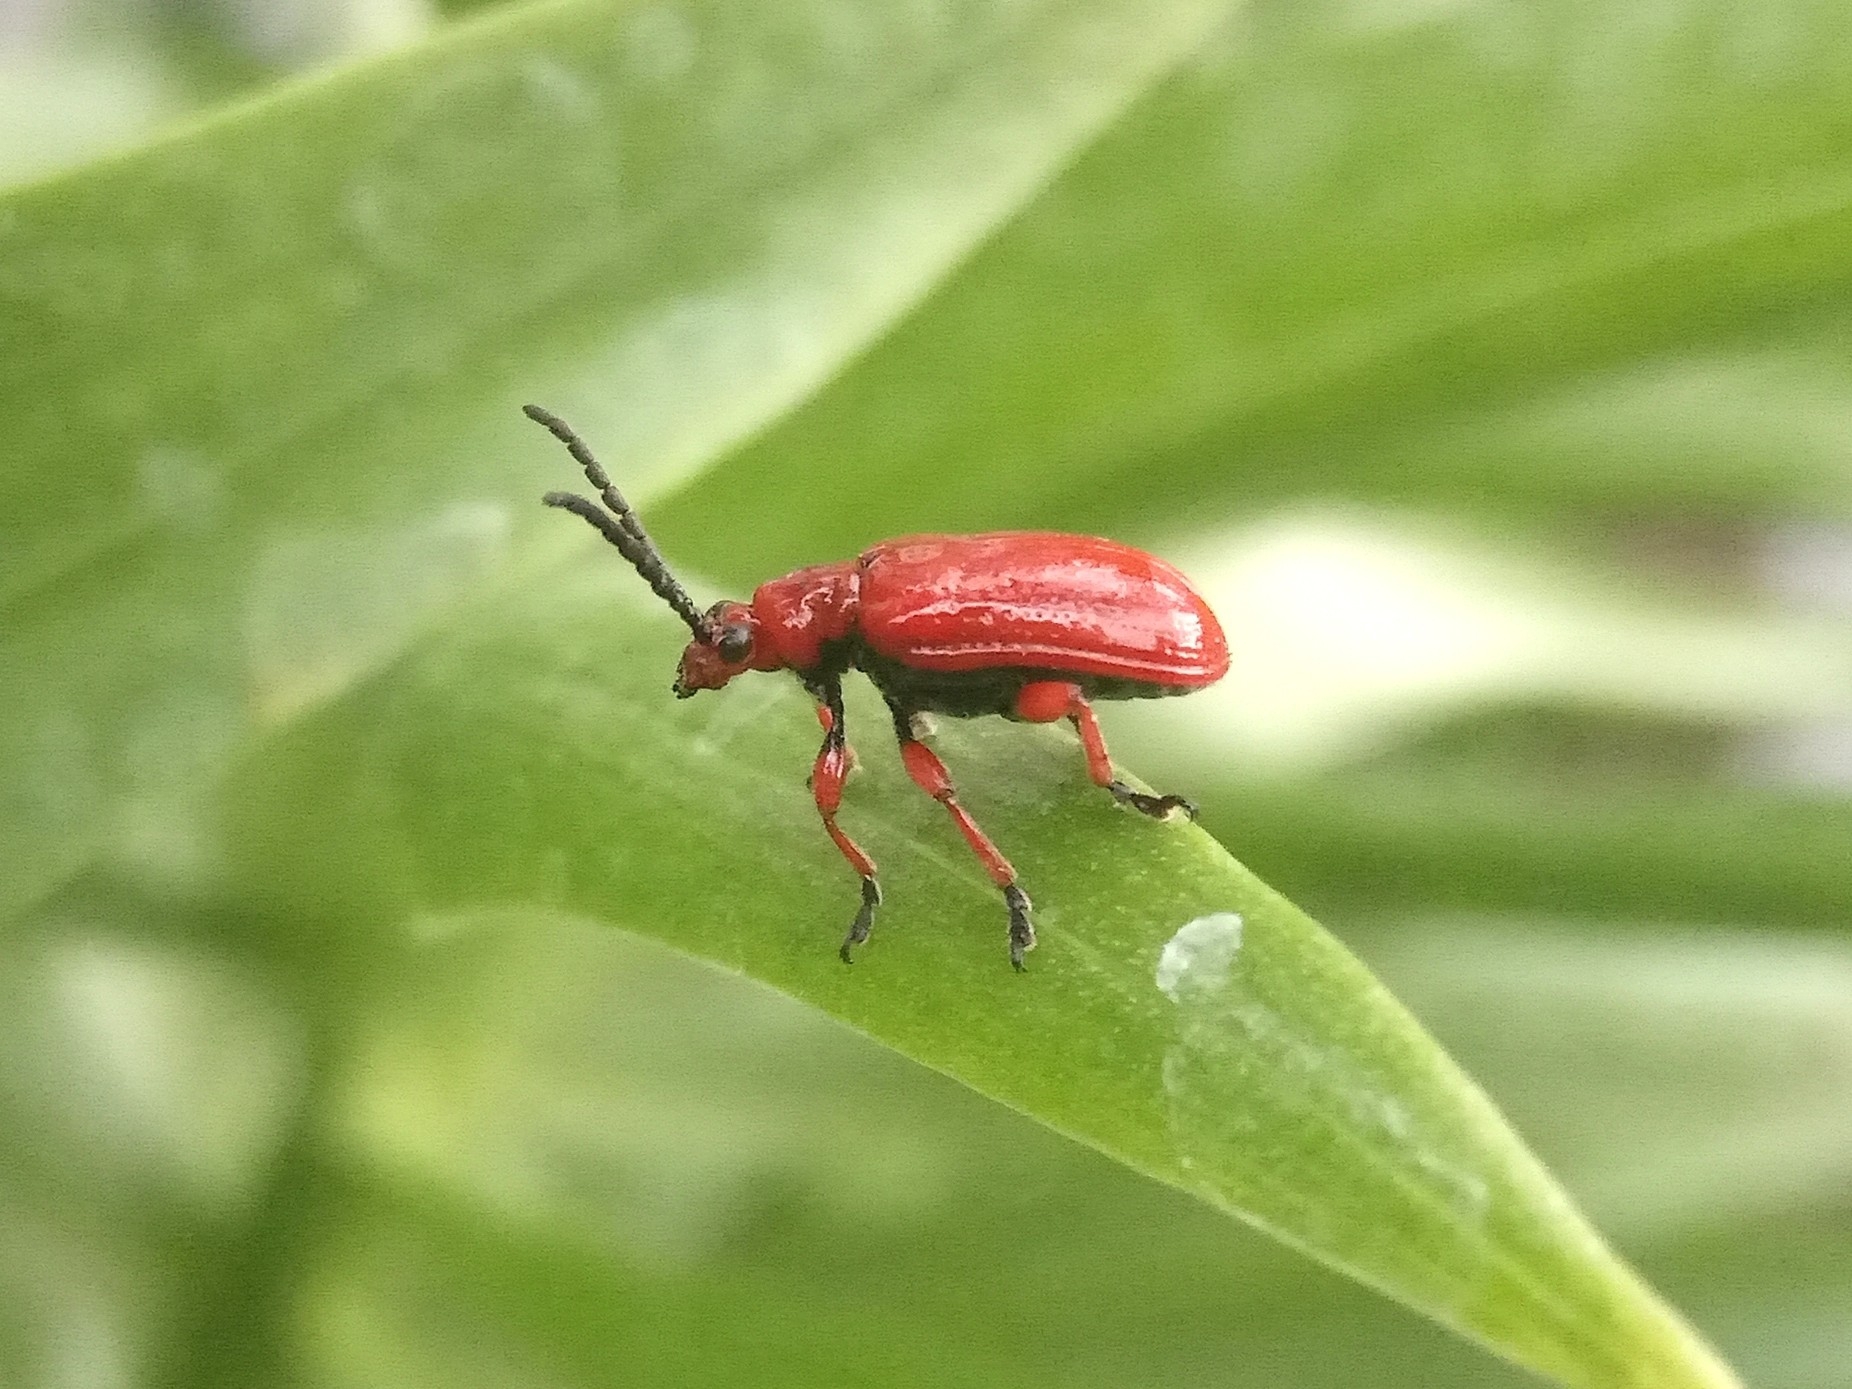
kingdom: Animalia
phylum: Arthropoda
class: Insecta
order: Coleoptera
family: Chrysomelidae
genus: Lilioceris
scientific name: Lilioceris faldermanni
